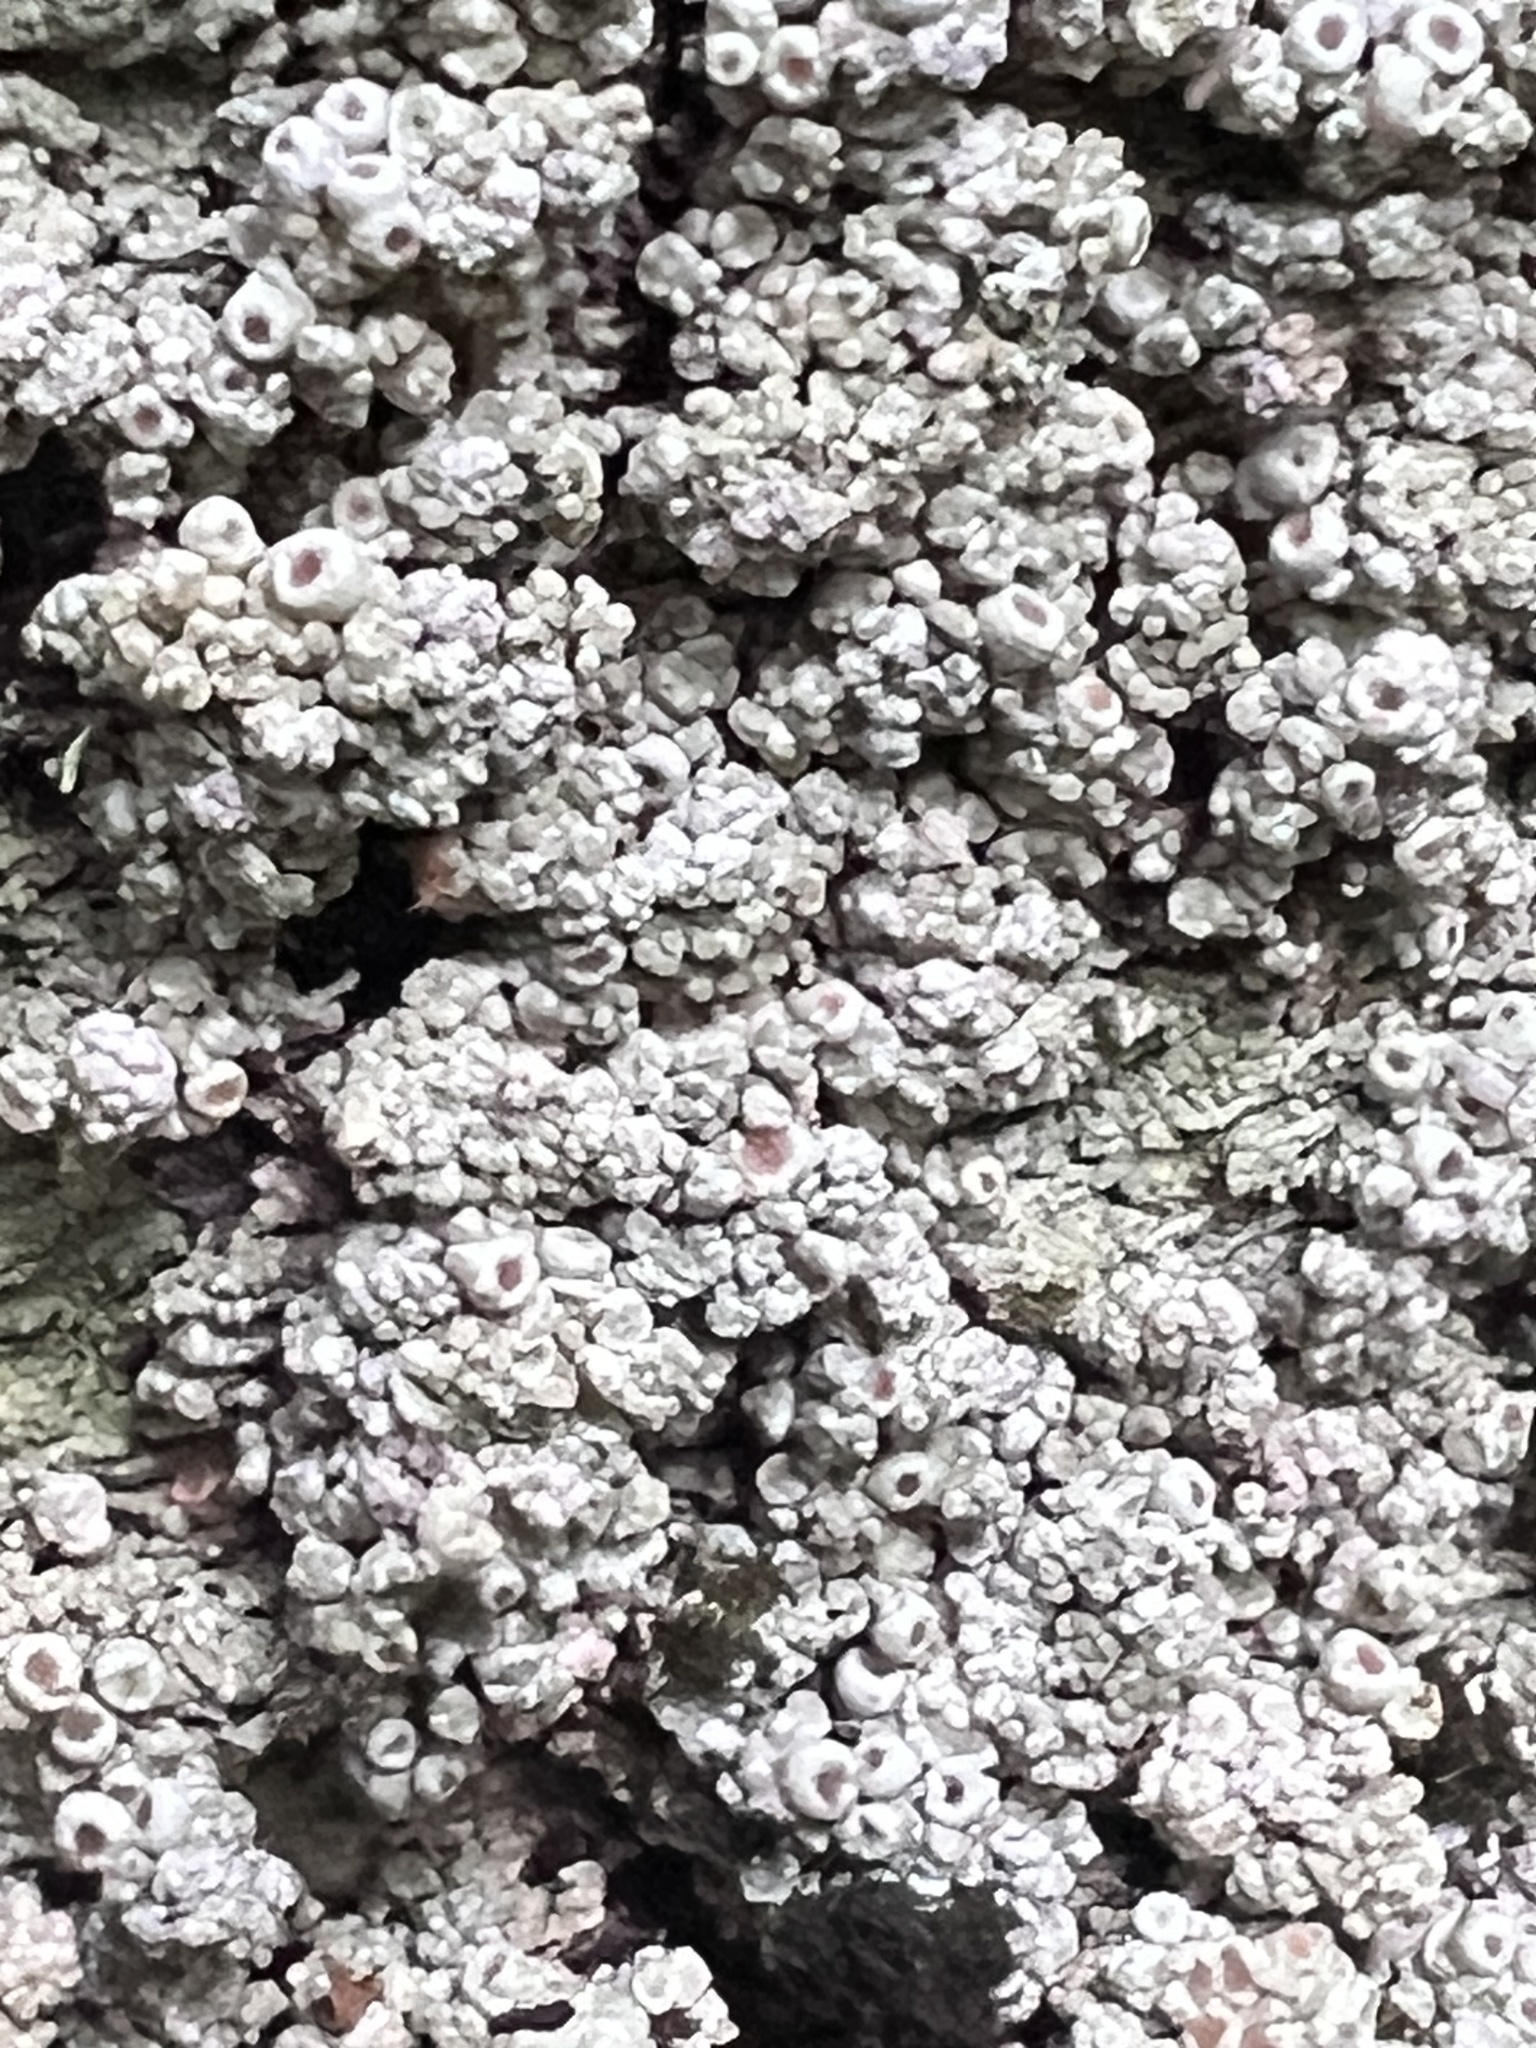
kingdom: Fungi
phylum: Ascomycota
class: Lecanoromycetes
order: Pertusariales
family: Coccotremataceae
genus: Coccotrema
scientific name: Coccotrema cucurbitula
